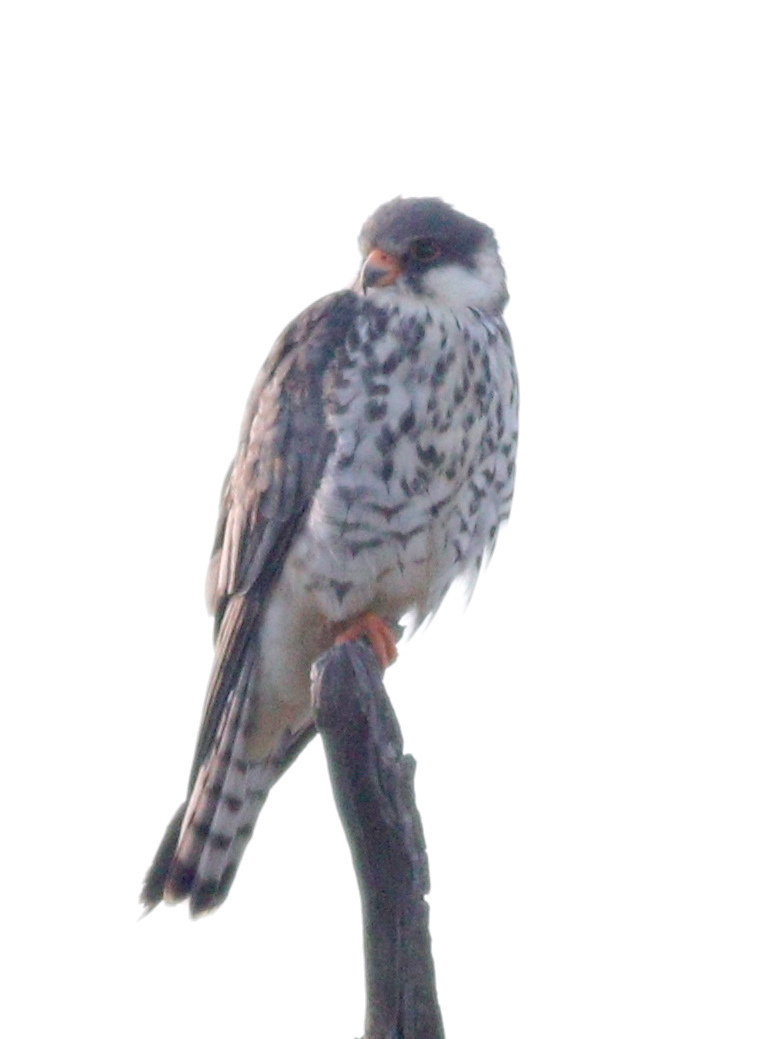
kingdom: Animalia
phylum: Chordata
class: Aves
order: Falconiformes
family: Falconidae
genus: Falco
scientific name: Falco amurensis
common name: Amur falcon
